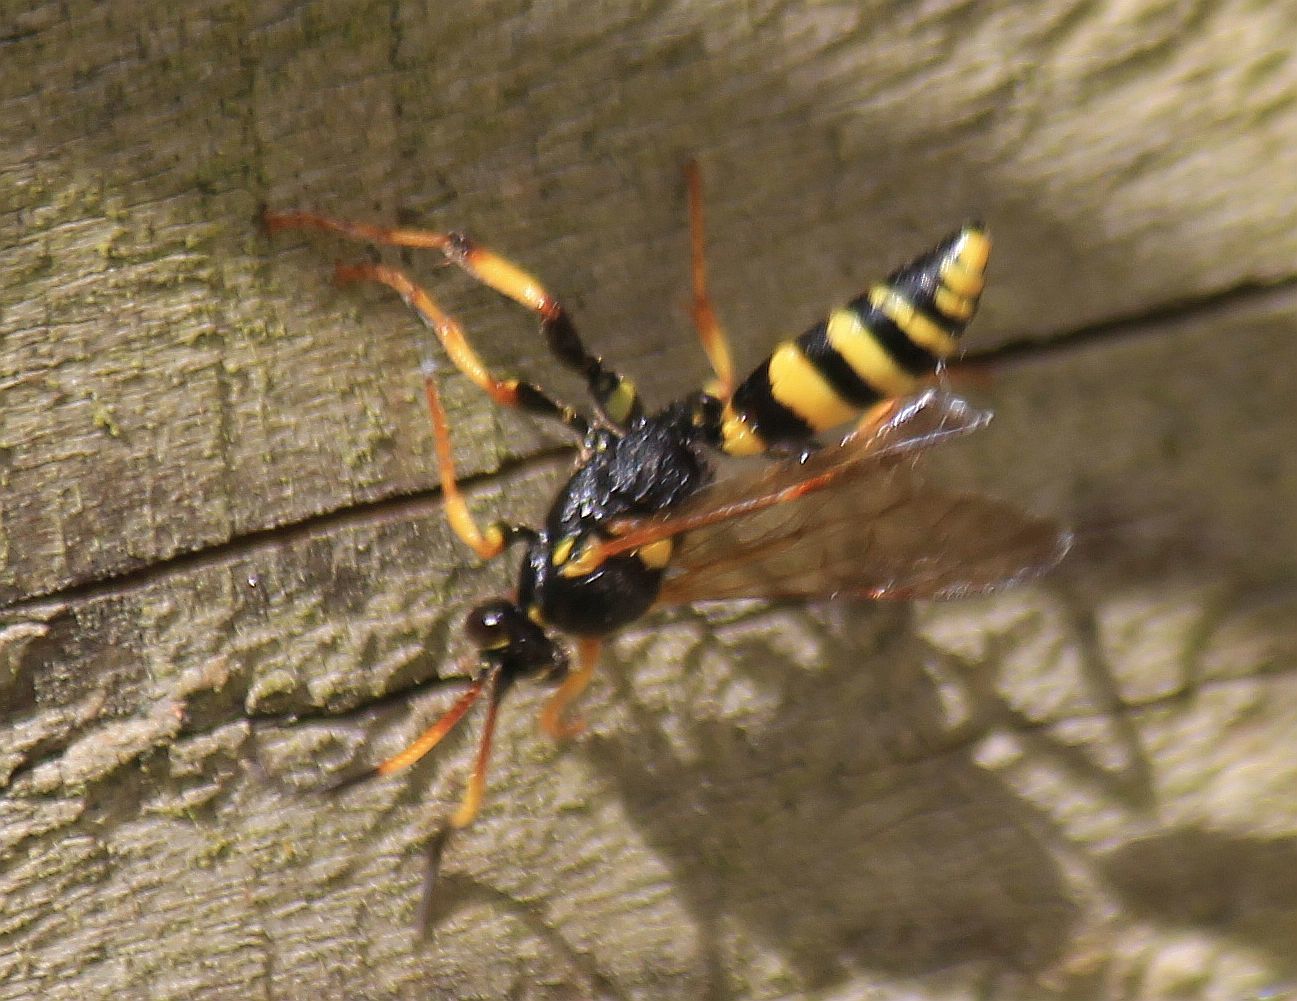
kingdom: Animalia
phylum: Arthropoda
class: Insecta
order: Hymenoptera
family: Ichneumonidae
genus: Ichneumon
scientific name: Ichneumon xanthorius
